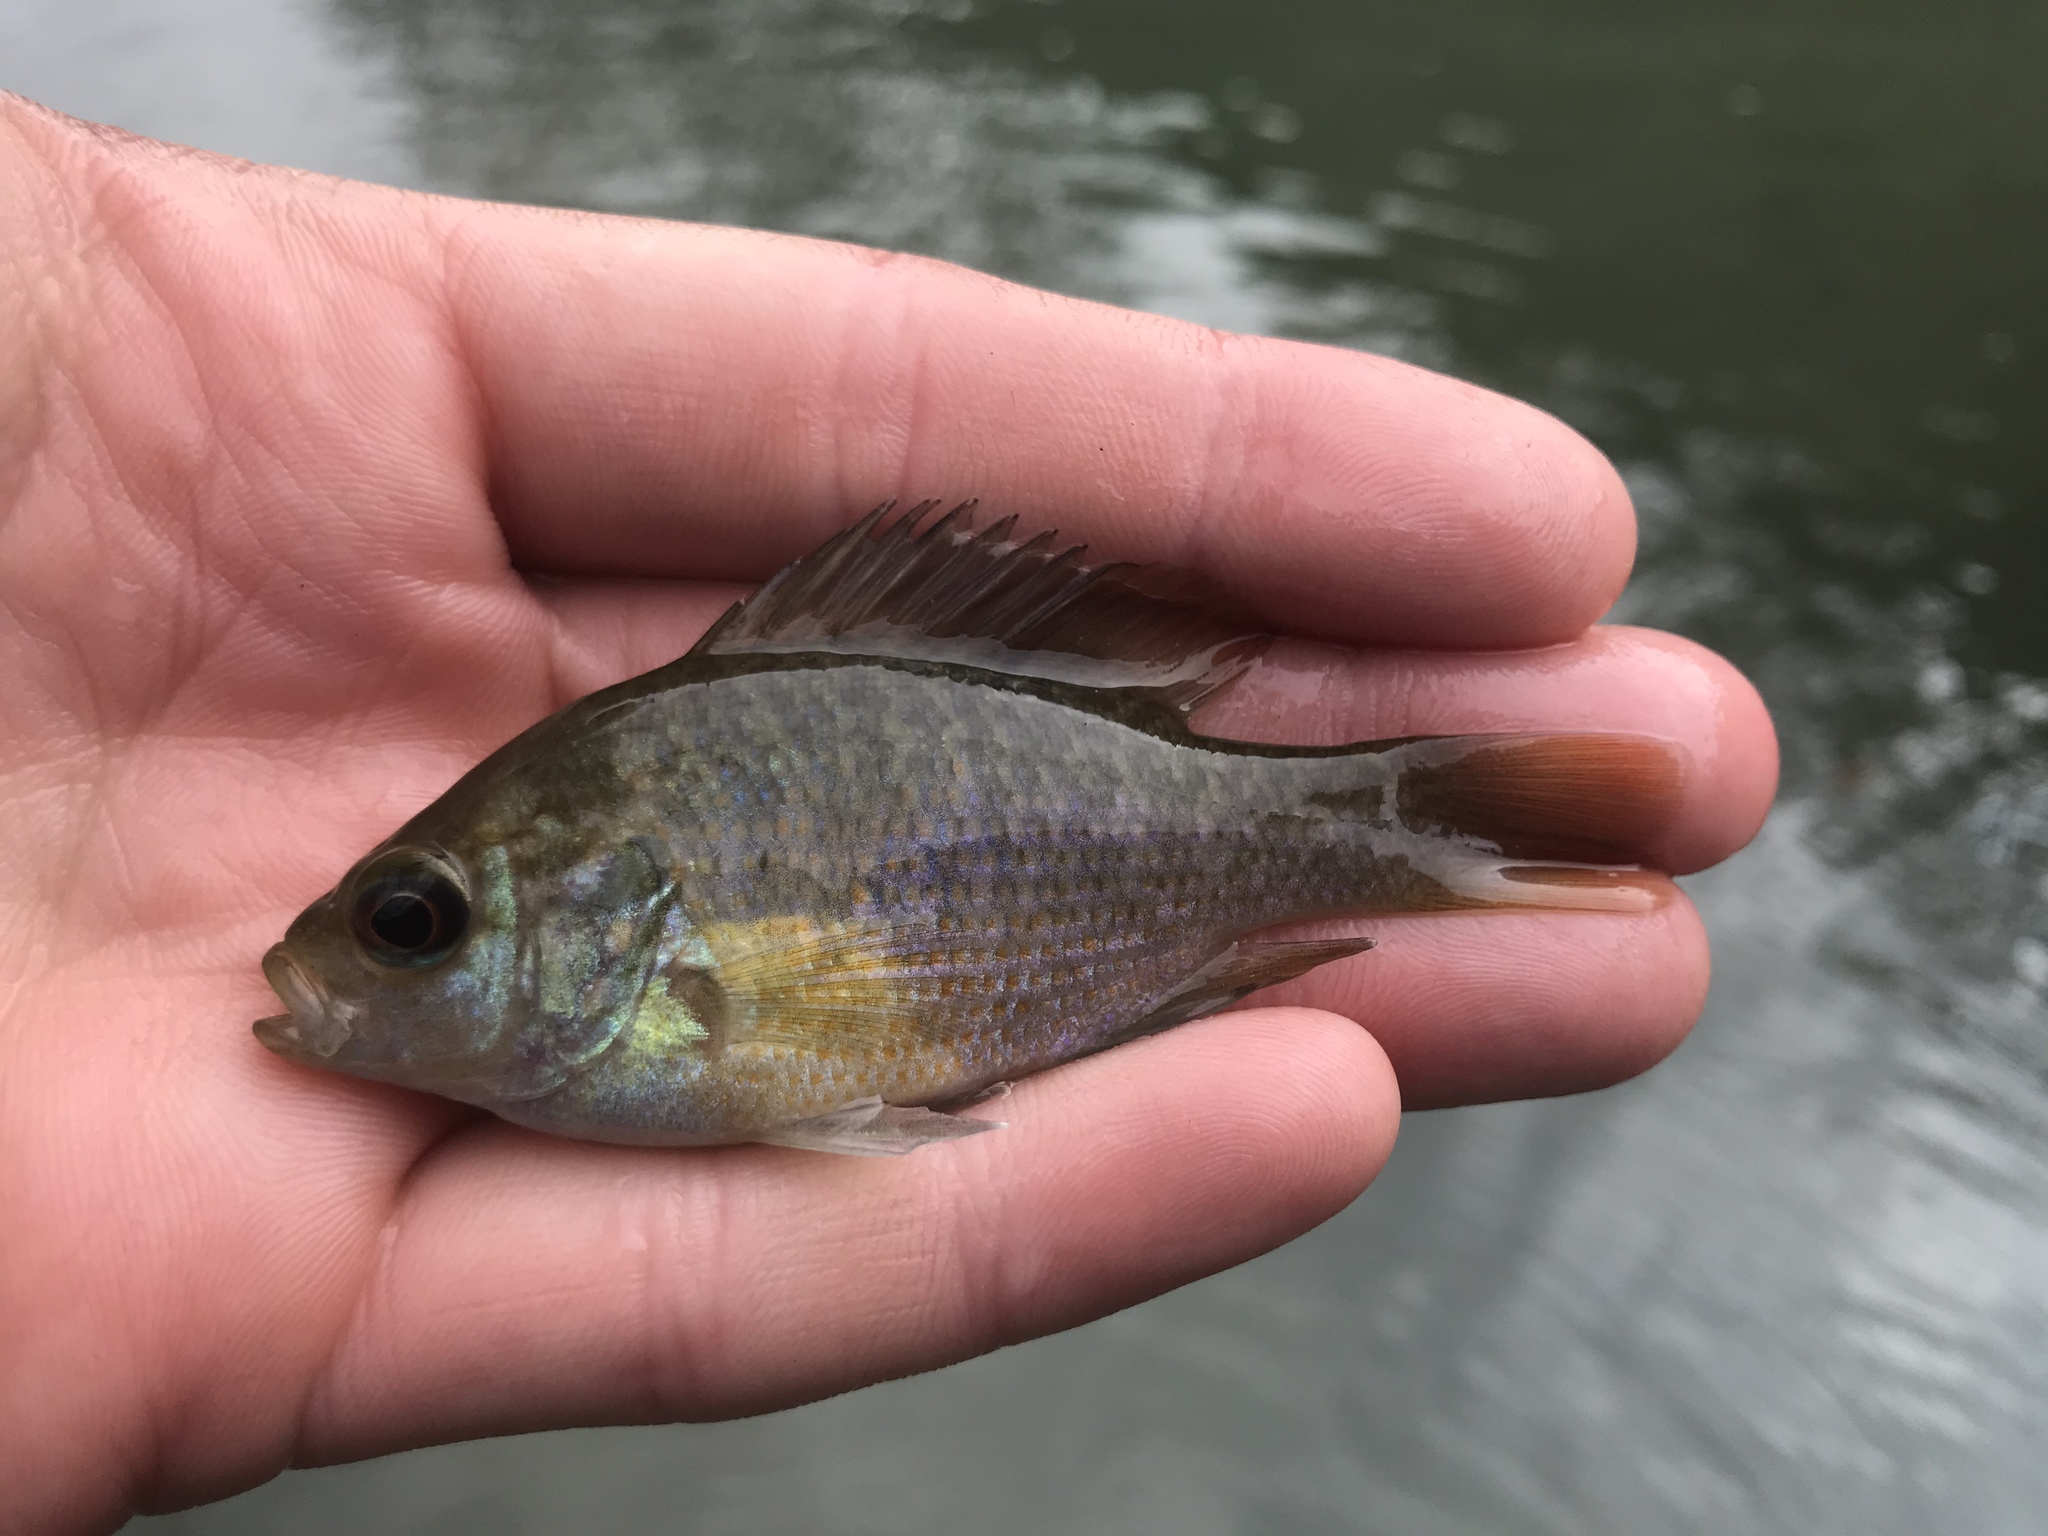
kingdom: Animalia
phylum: Chordata
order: Perciformes
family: Centrarchidae
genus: Lepomis
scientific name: Lepomis miniatus
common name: Redspotted sunfish
